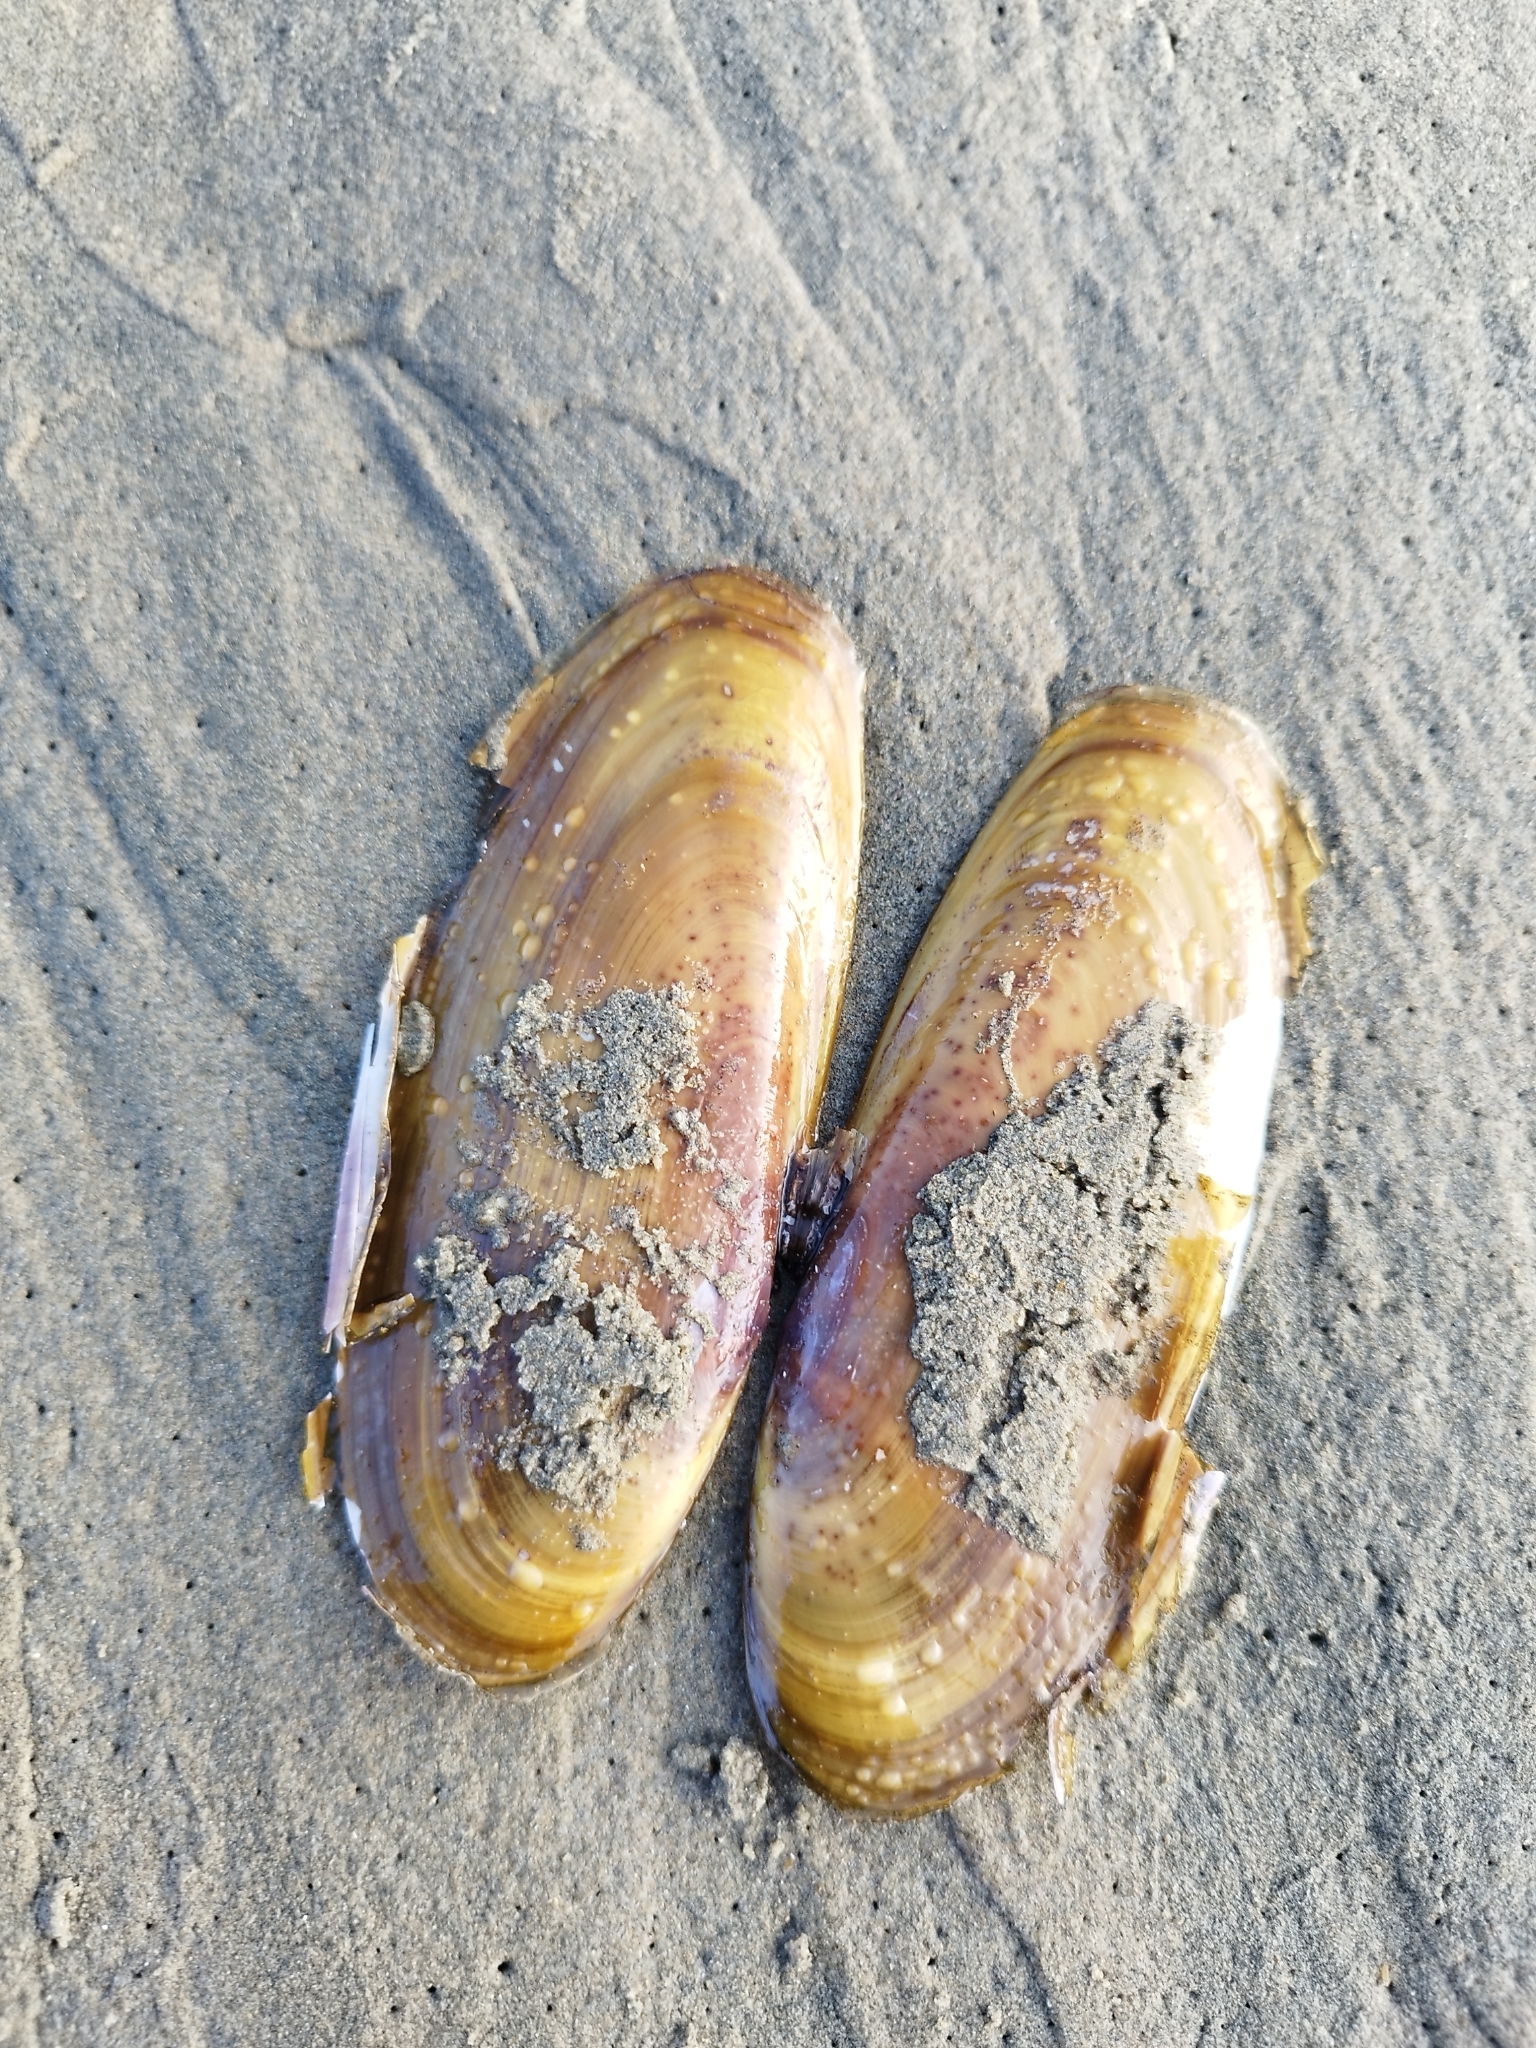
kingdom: Animalia
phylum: Mollusca
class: Bivalvia
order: Adapedonta
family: Pharidae
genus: Siliqua
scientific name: Siliqua patula
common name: Pacific razor clam
